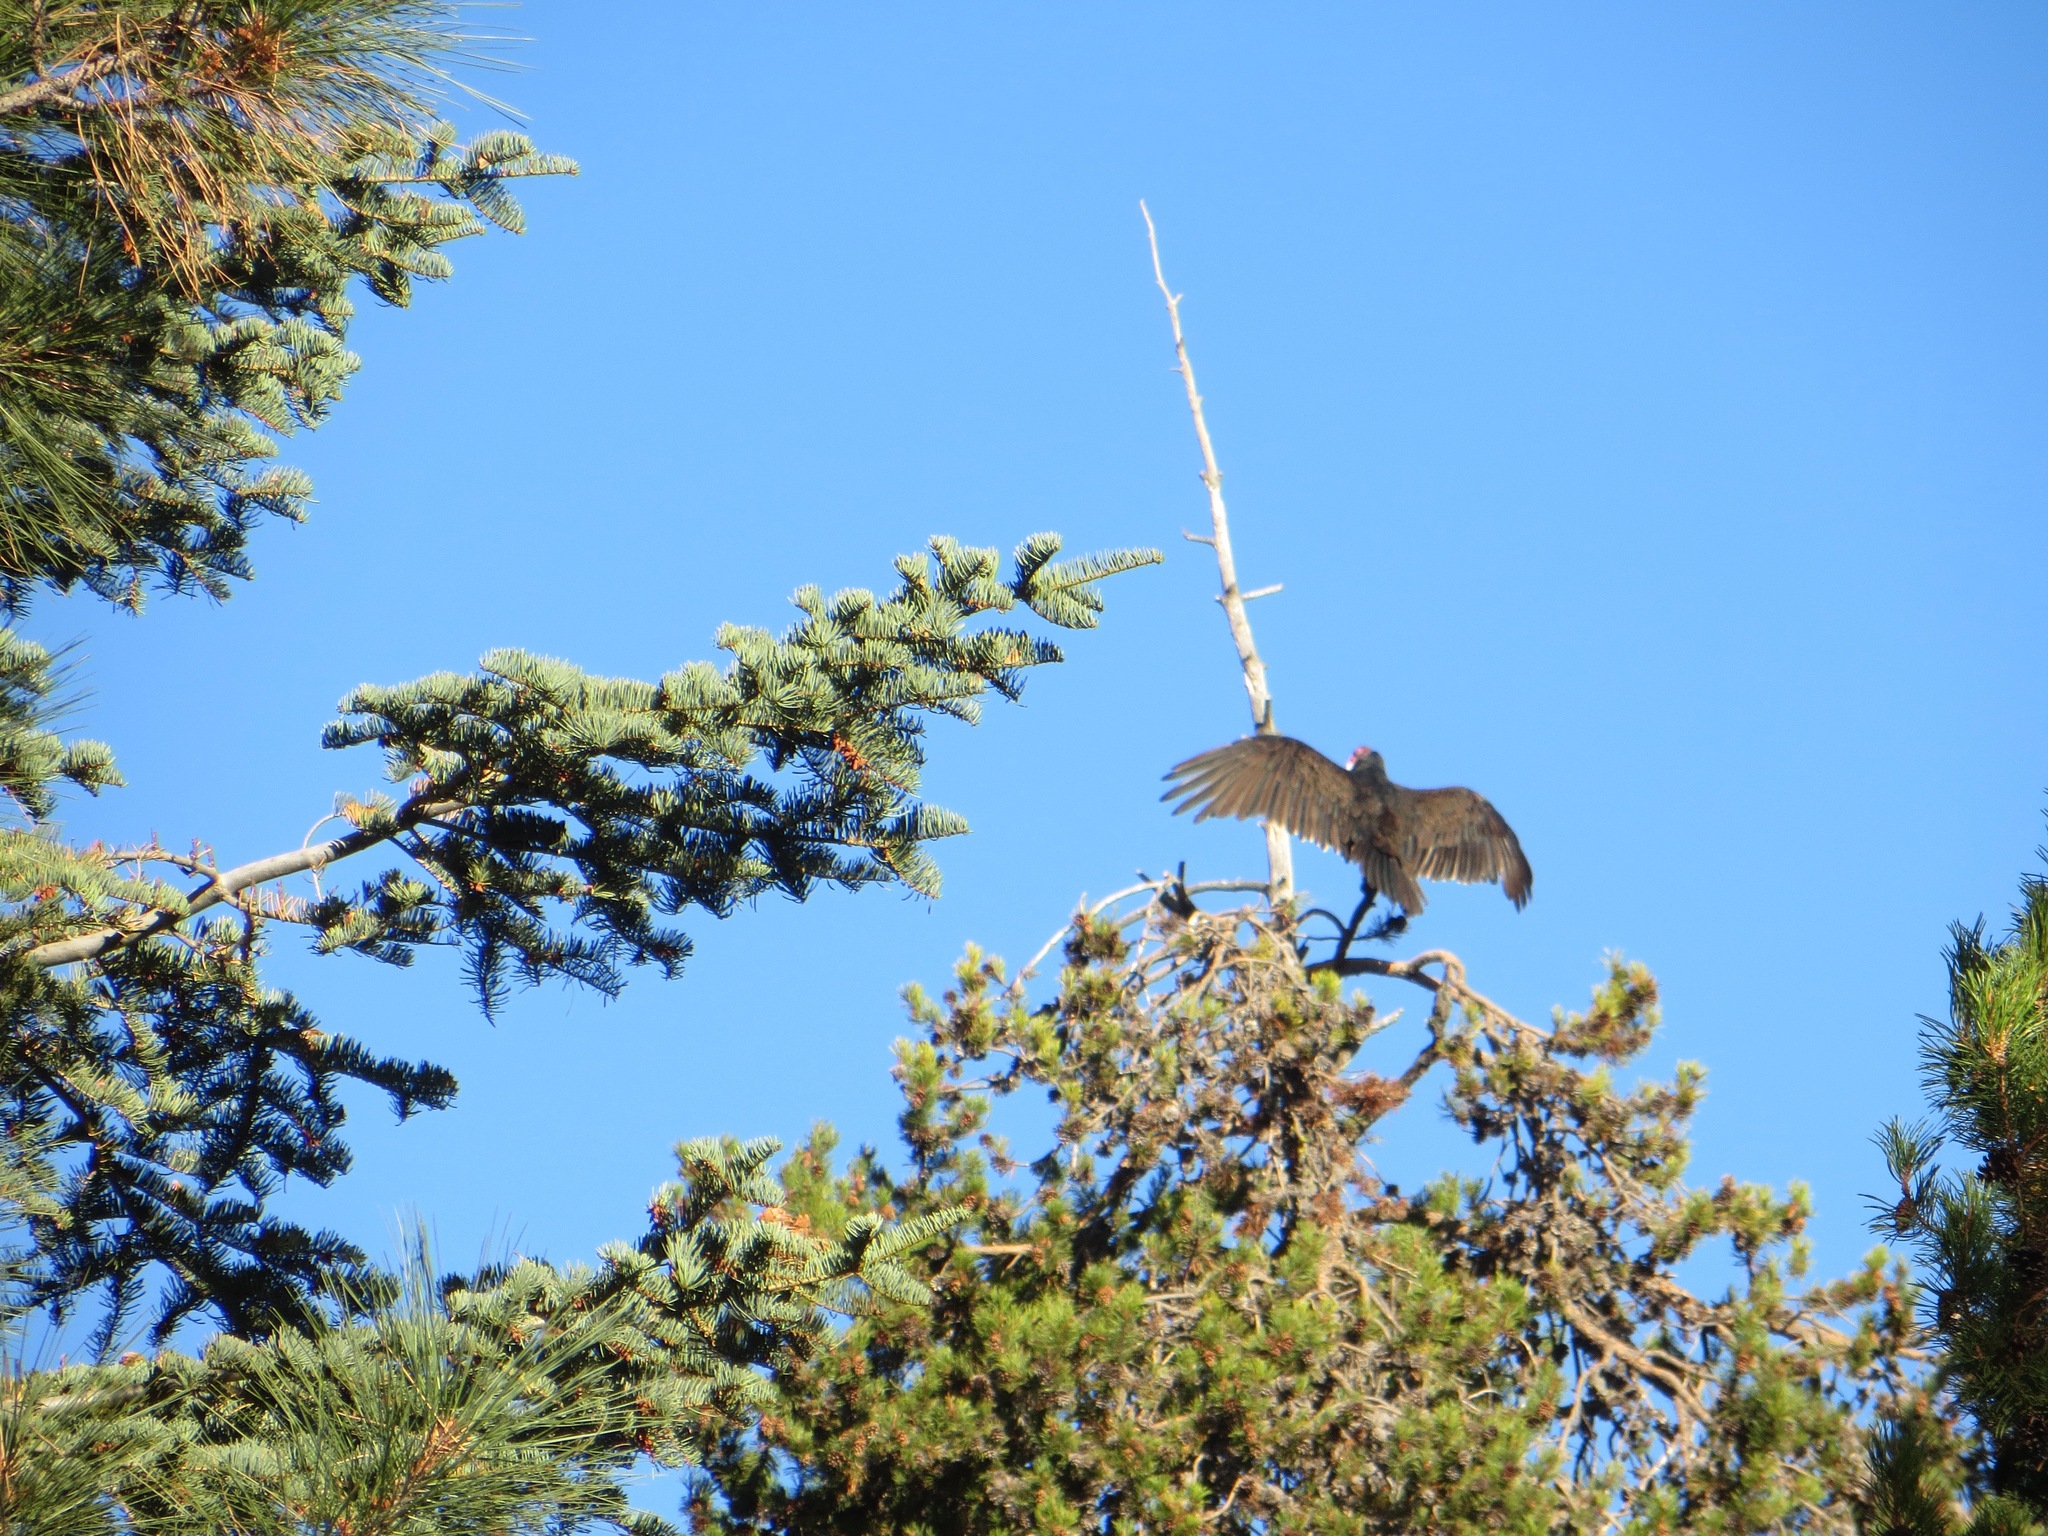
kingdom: Animalia
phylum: Chordata
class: Aves
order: Accipitriformes
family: Cathartidae
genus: Cathartes
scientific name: Cathartes aura
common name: Turkey vulture
